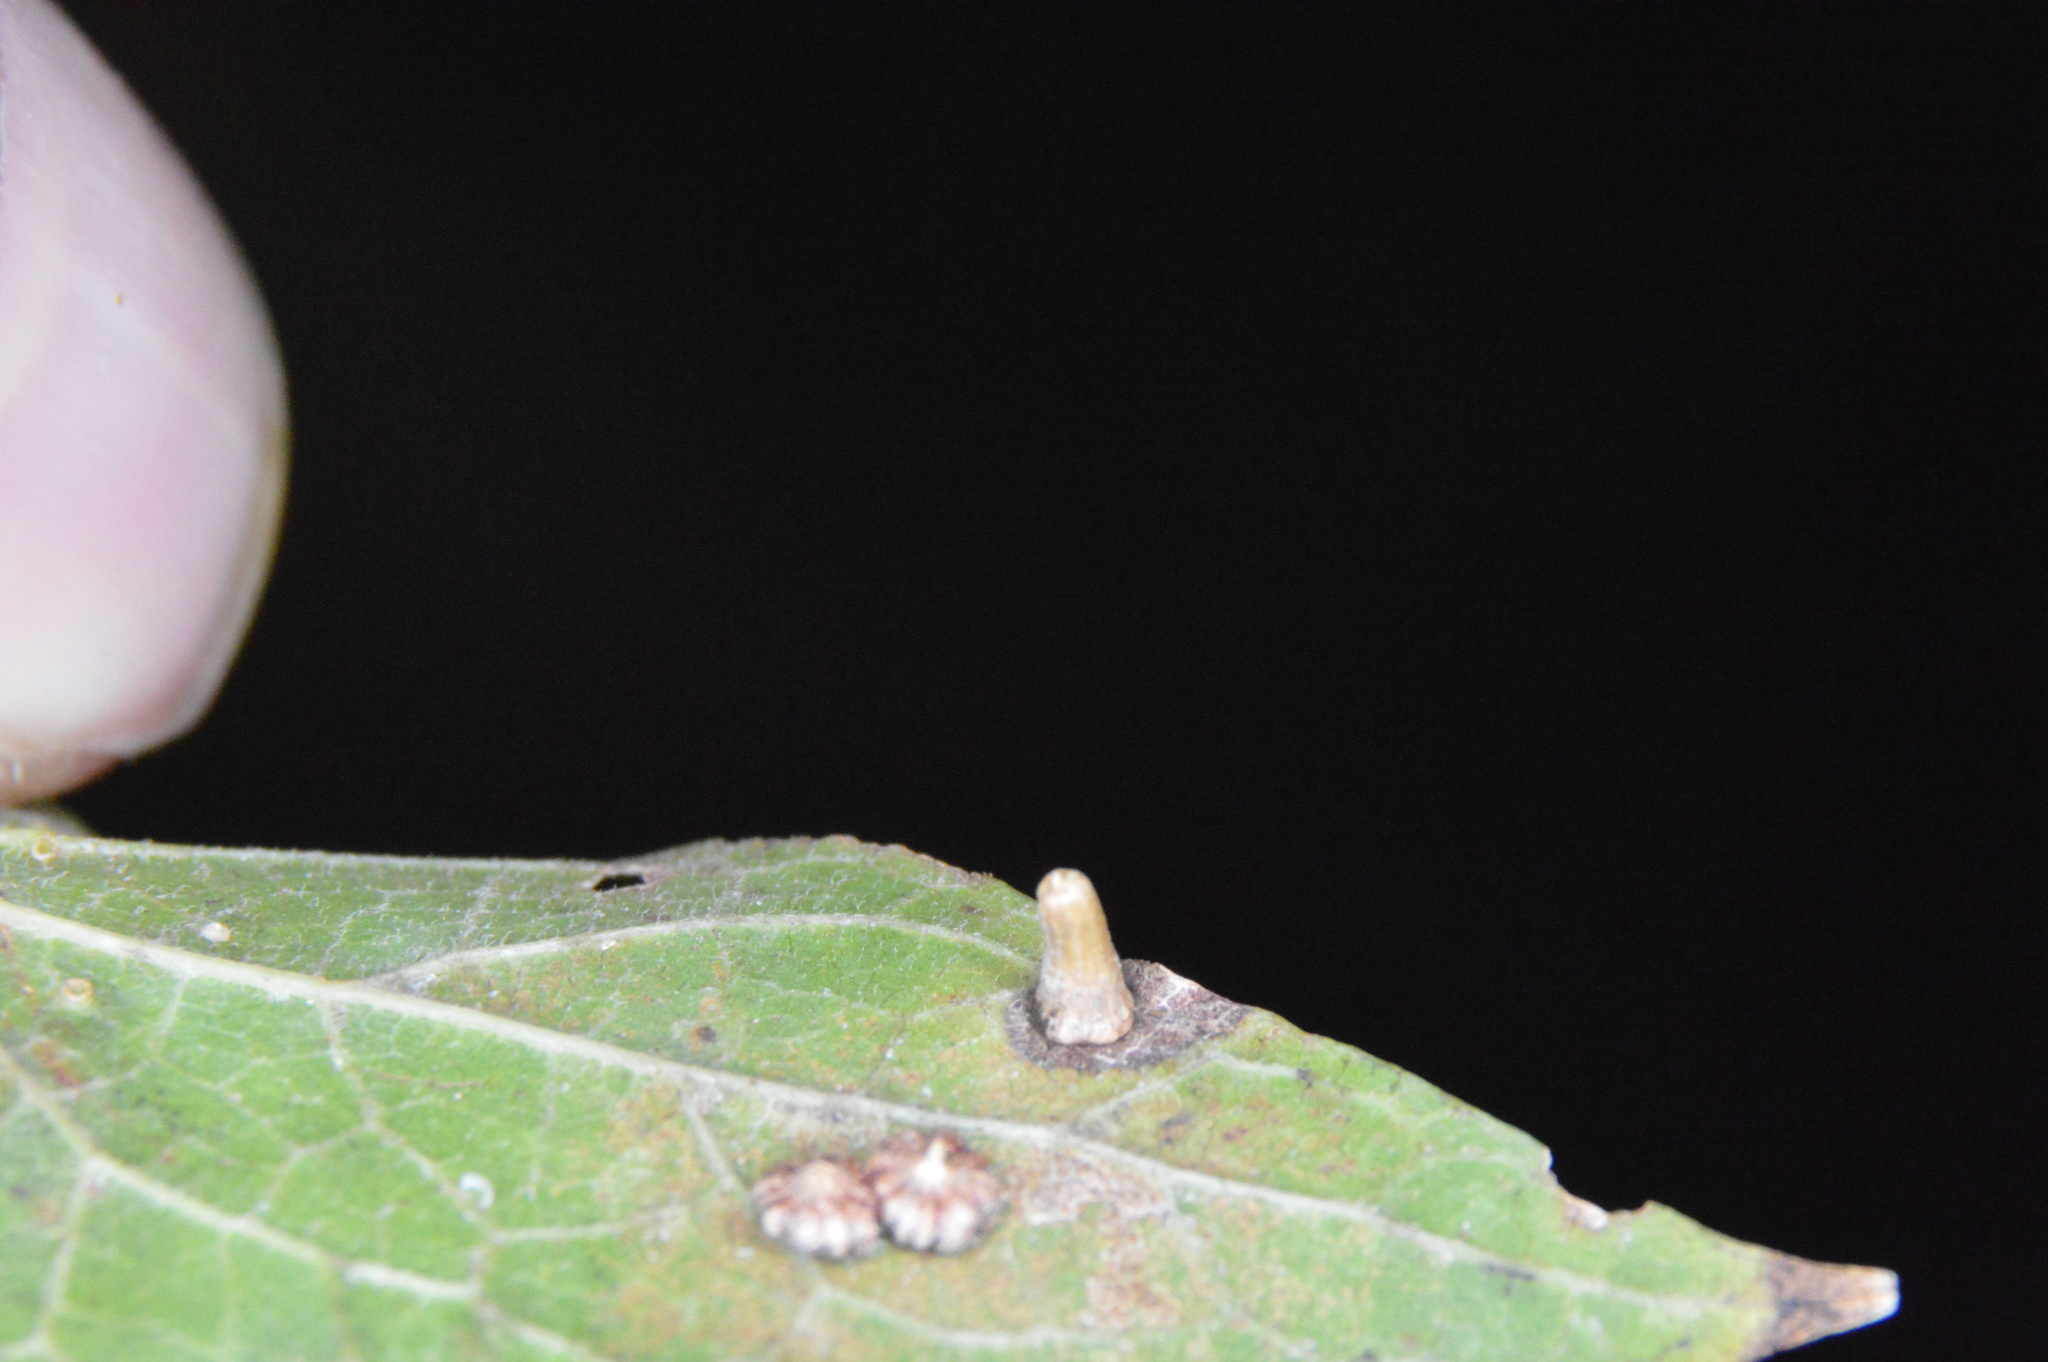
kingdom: Animalia
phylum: Arthropoda
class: Insecta
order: Diptera
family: Cecidomyiidae
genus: Celticecis
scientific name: Celticecis aciculata
